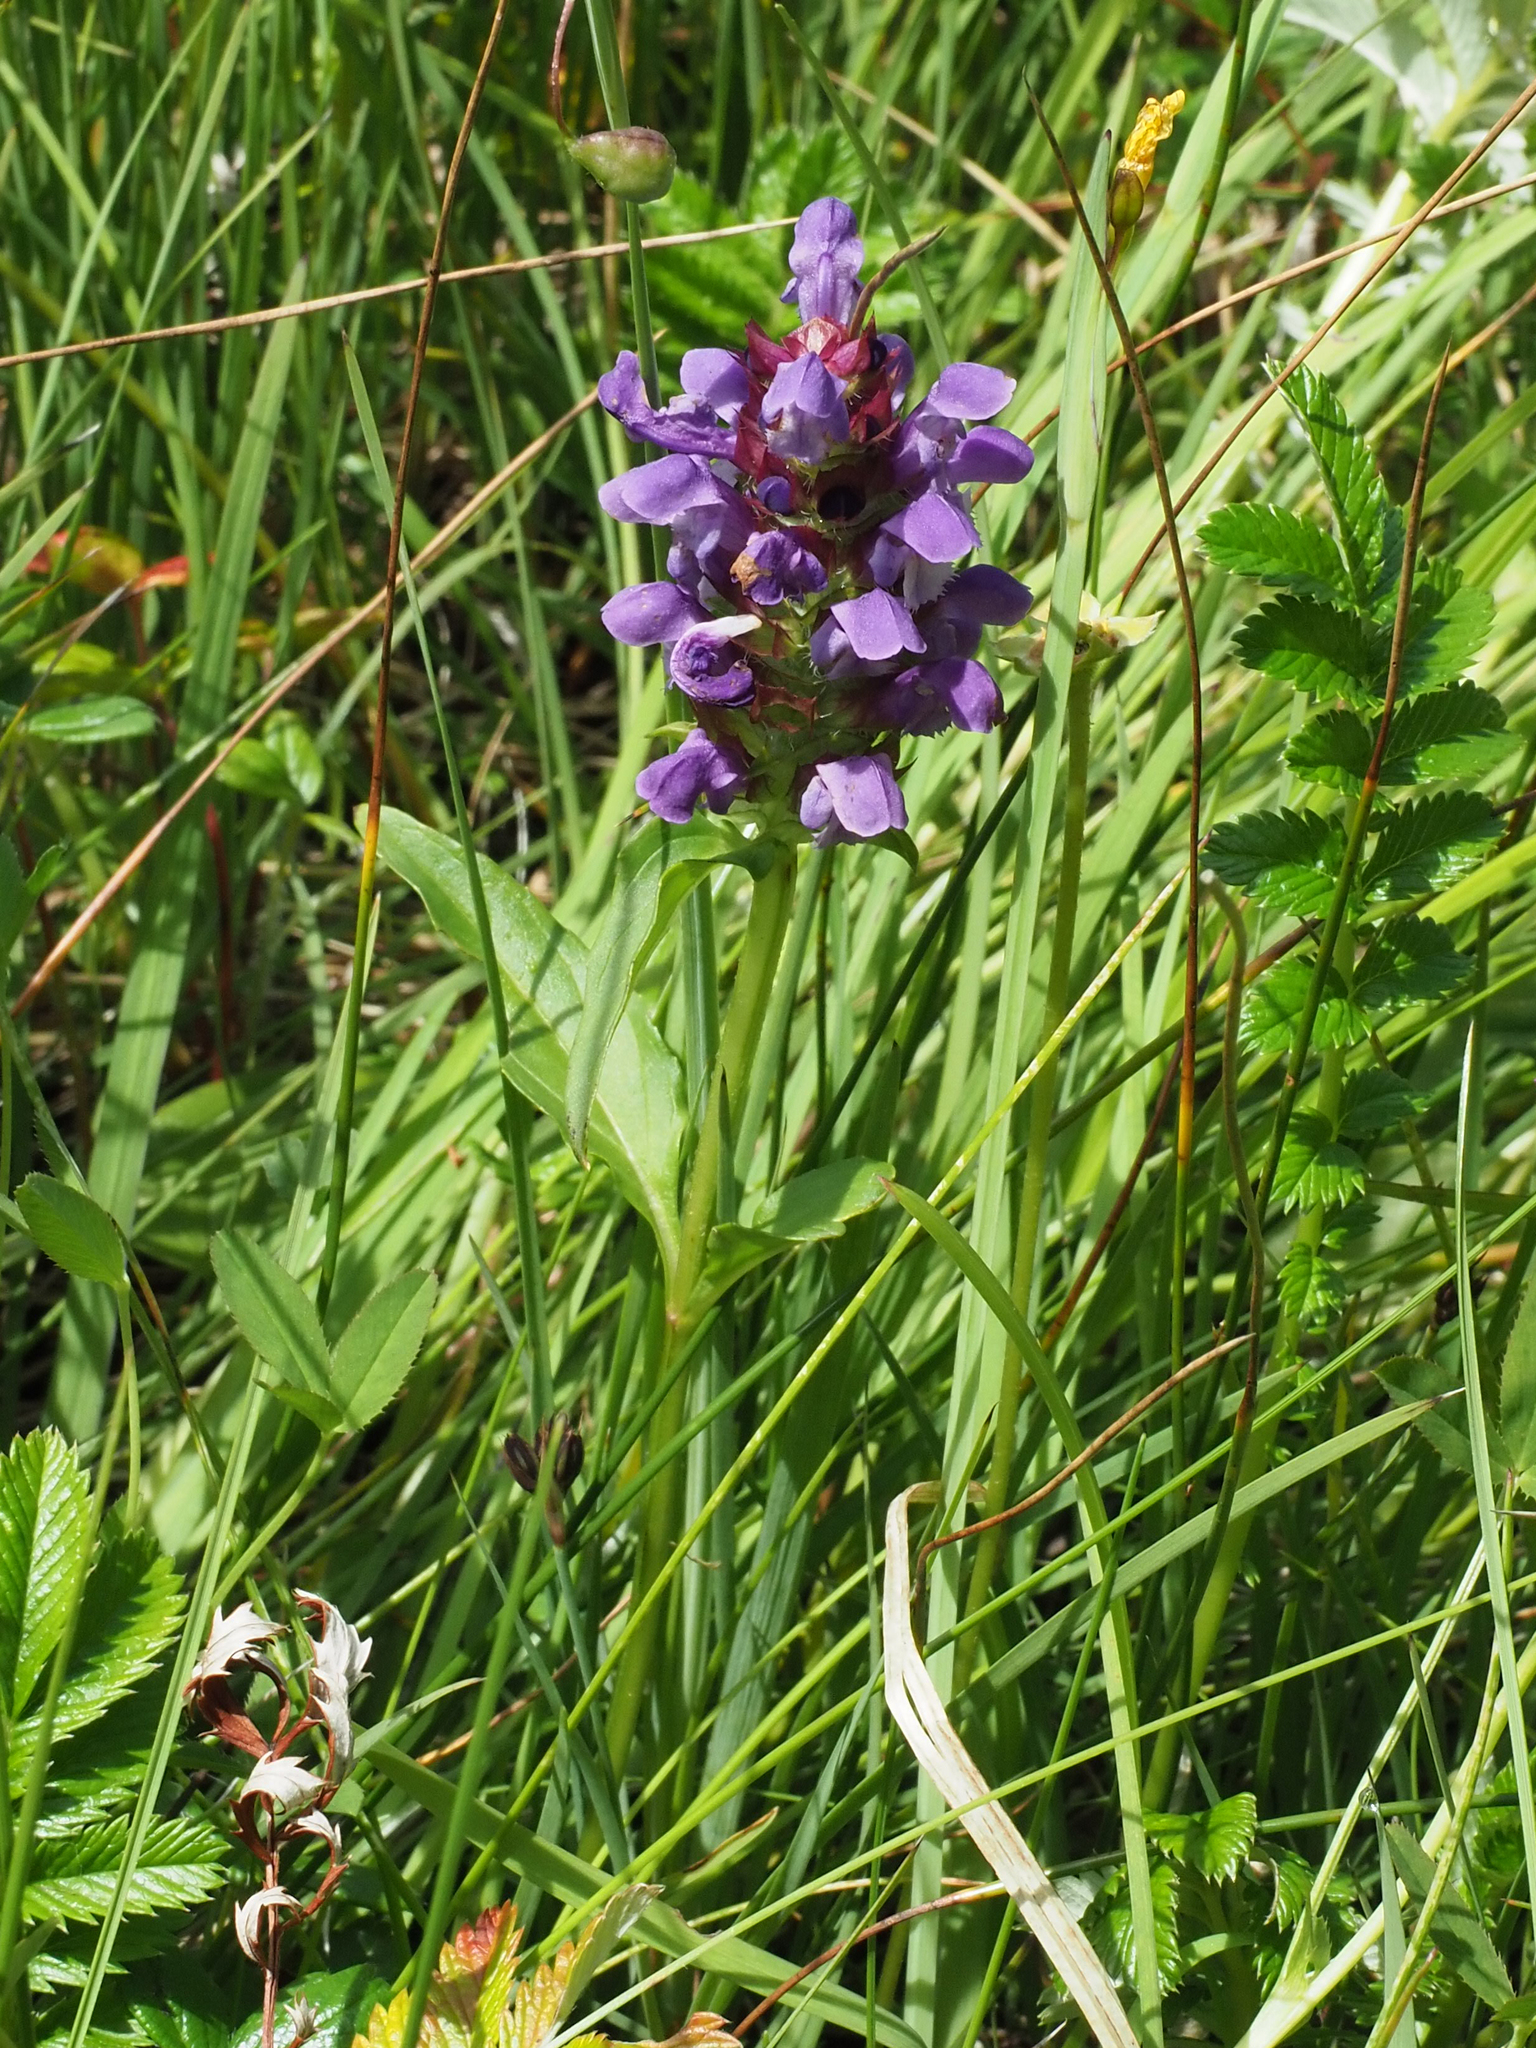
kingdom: Plantae
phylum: Tracheophyta
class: Magnoliopsida
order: Lamiales
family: Lamiaceae
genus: Prunella
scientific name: Prunella vulgaris
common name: Heal-all
